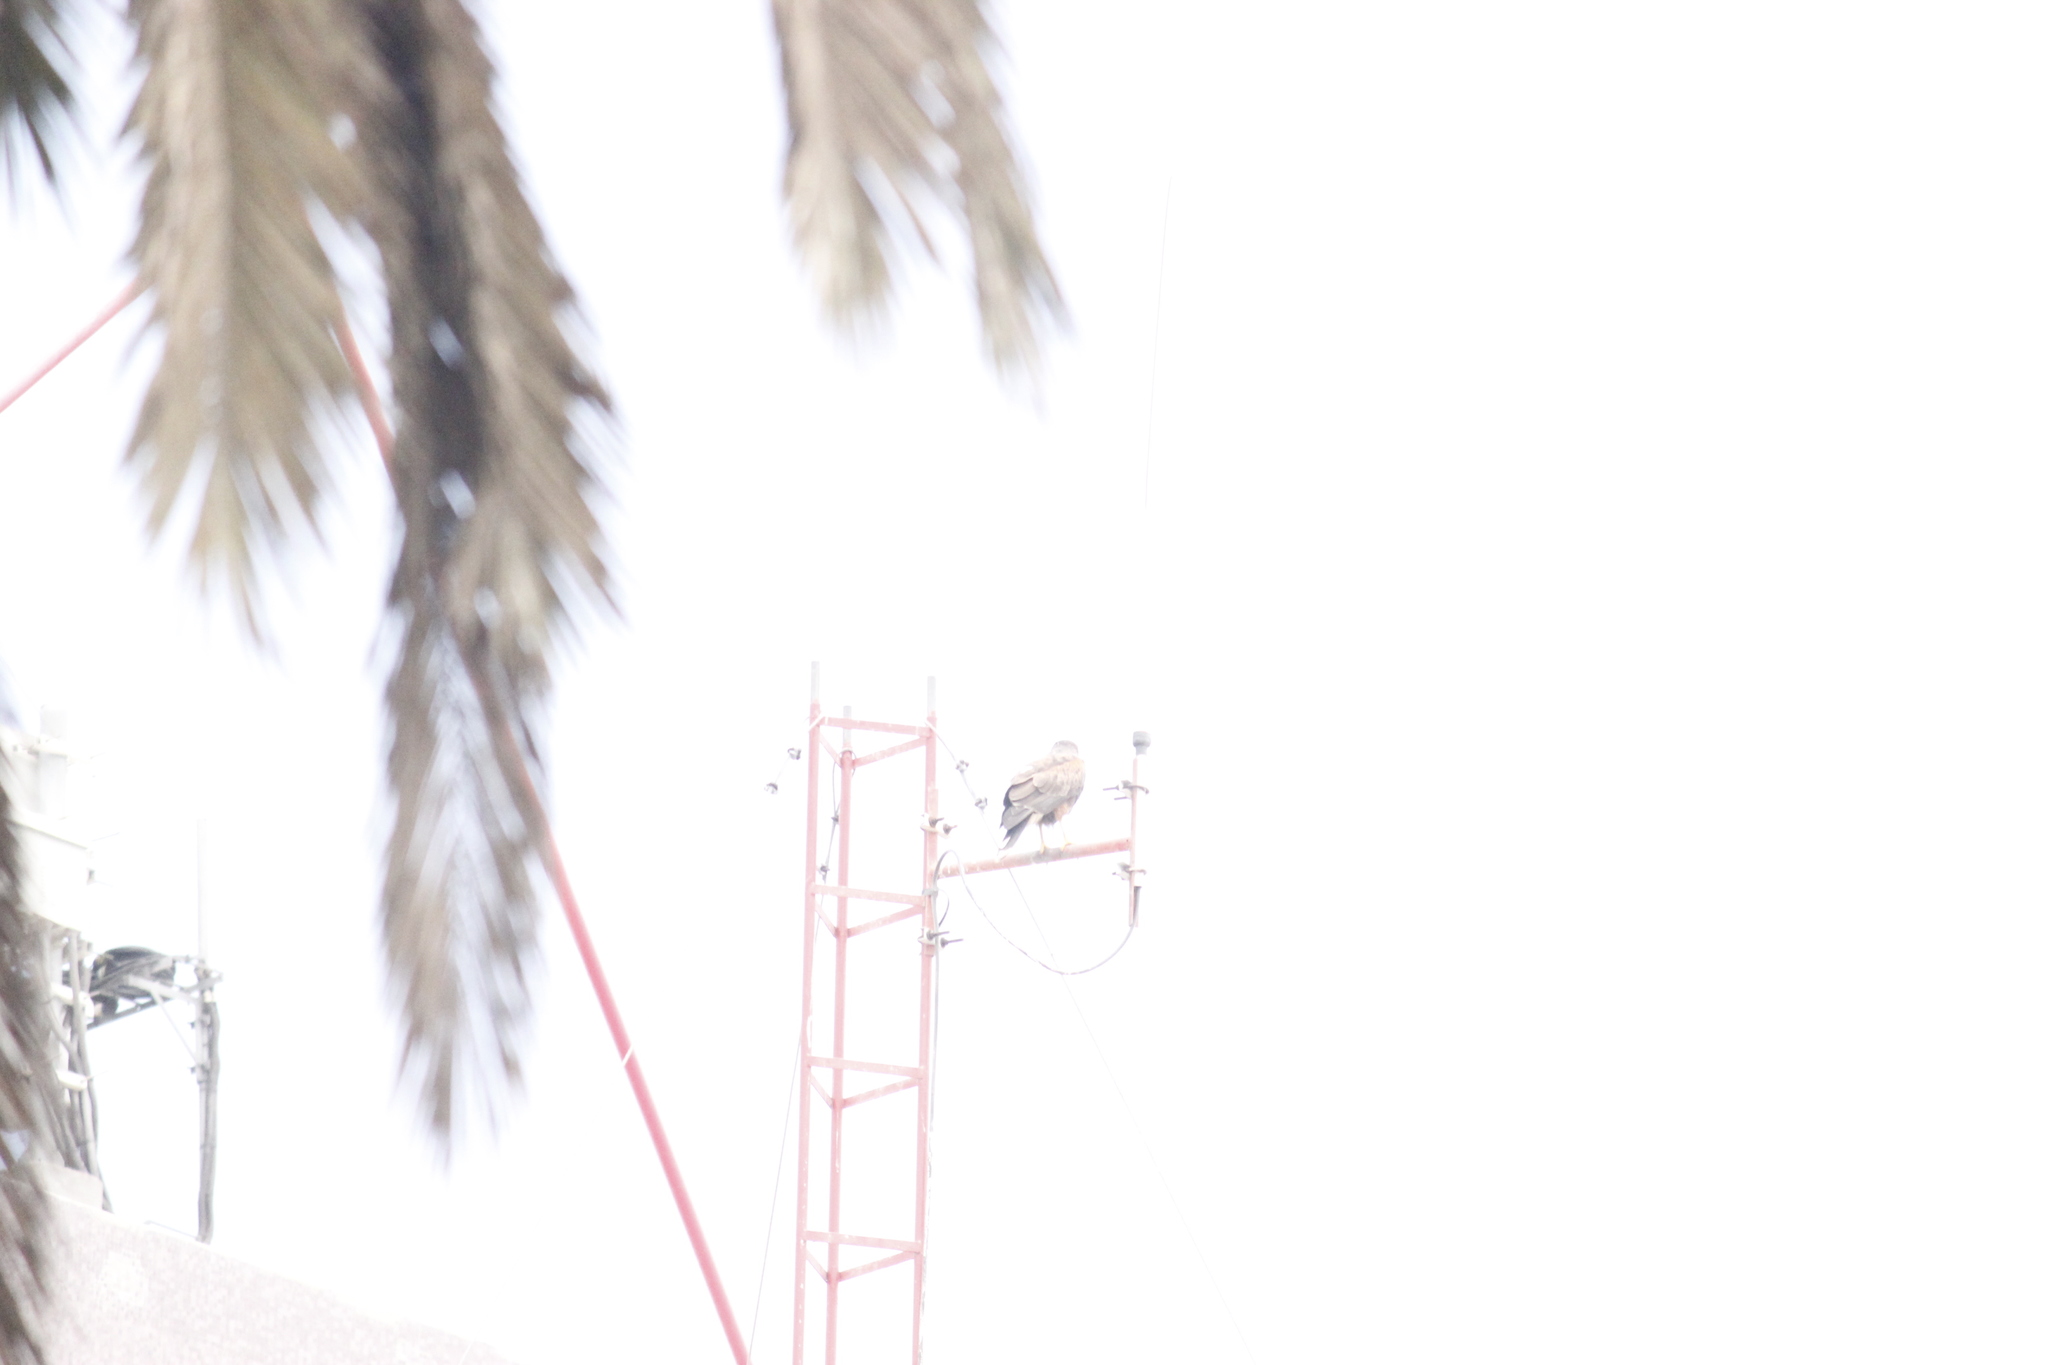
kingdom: Animalia
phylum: Chordata
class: Aves
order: Accipitriformes
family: Accipitridae
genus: Parabuteo
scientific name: Parabuteo unicinctus
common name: Harris's hawk
